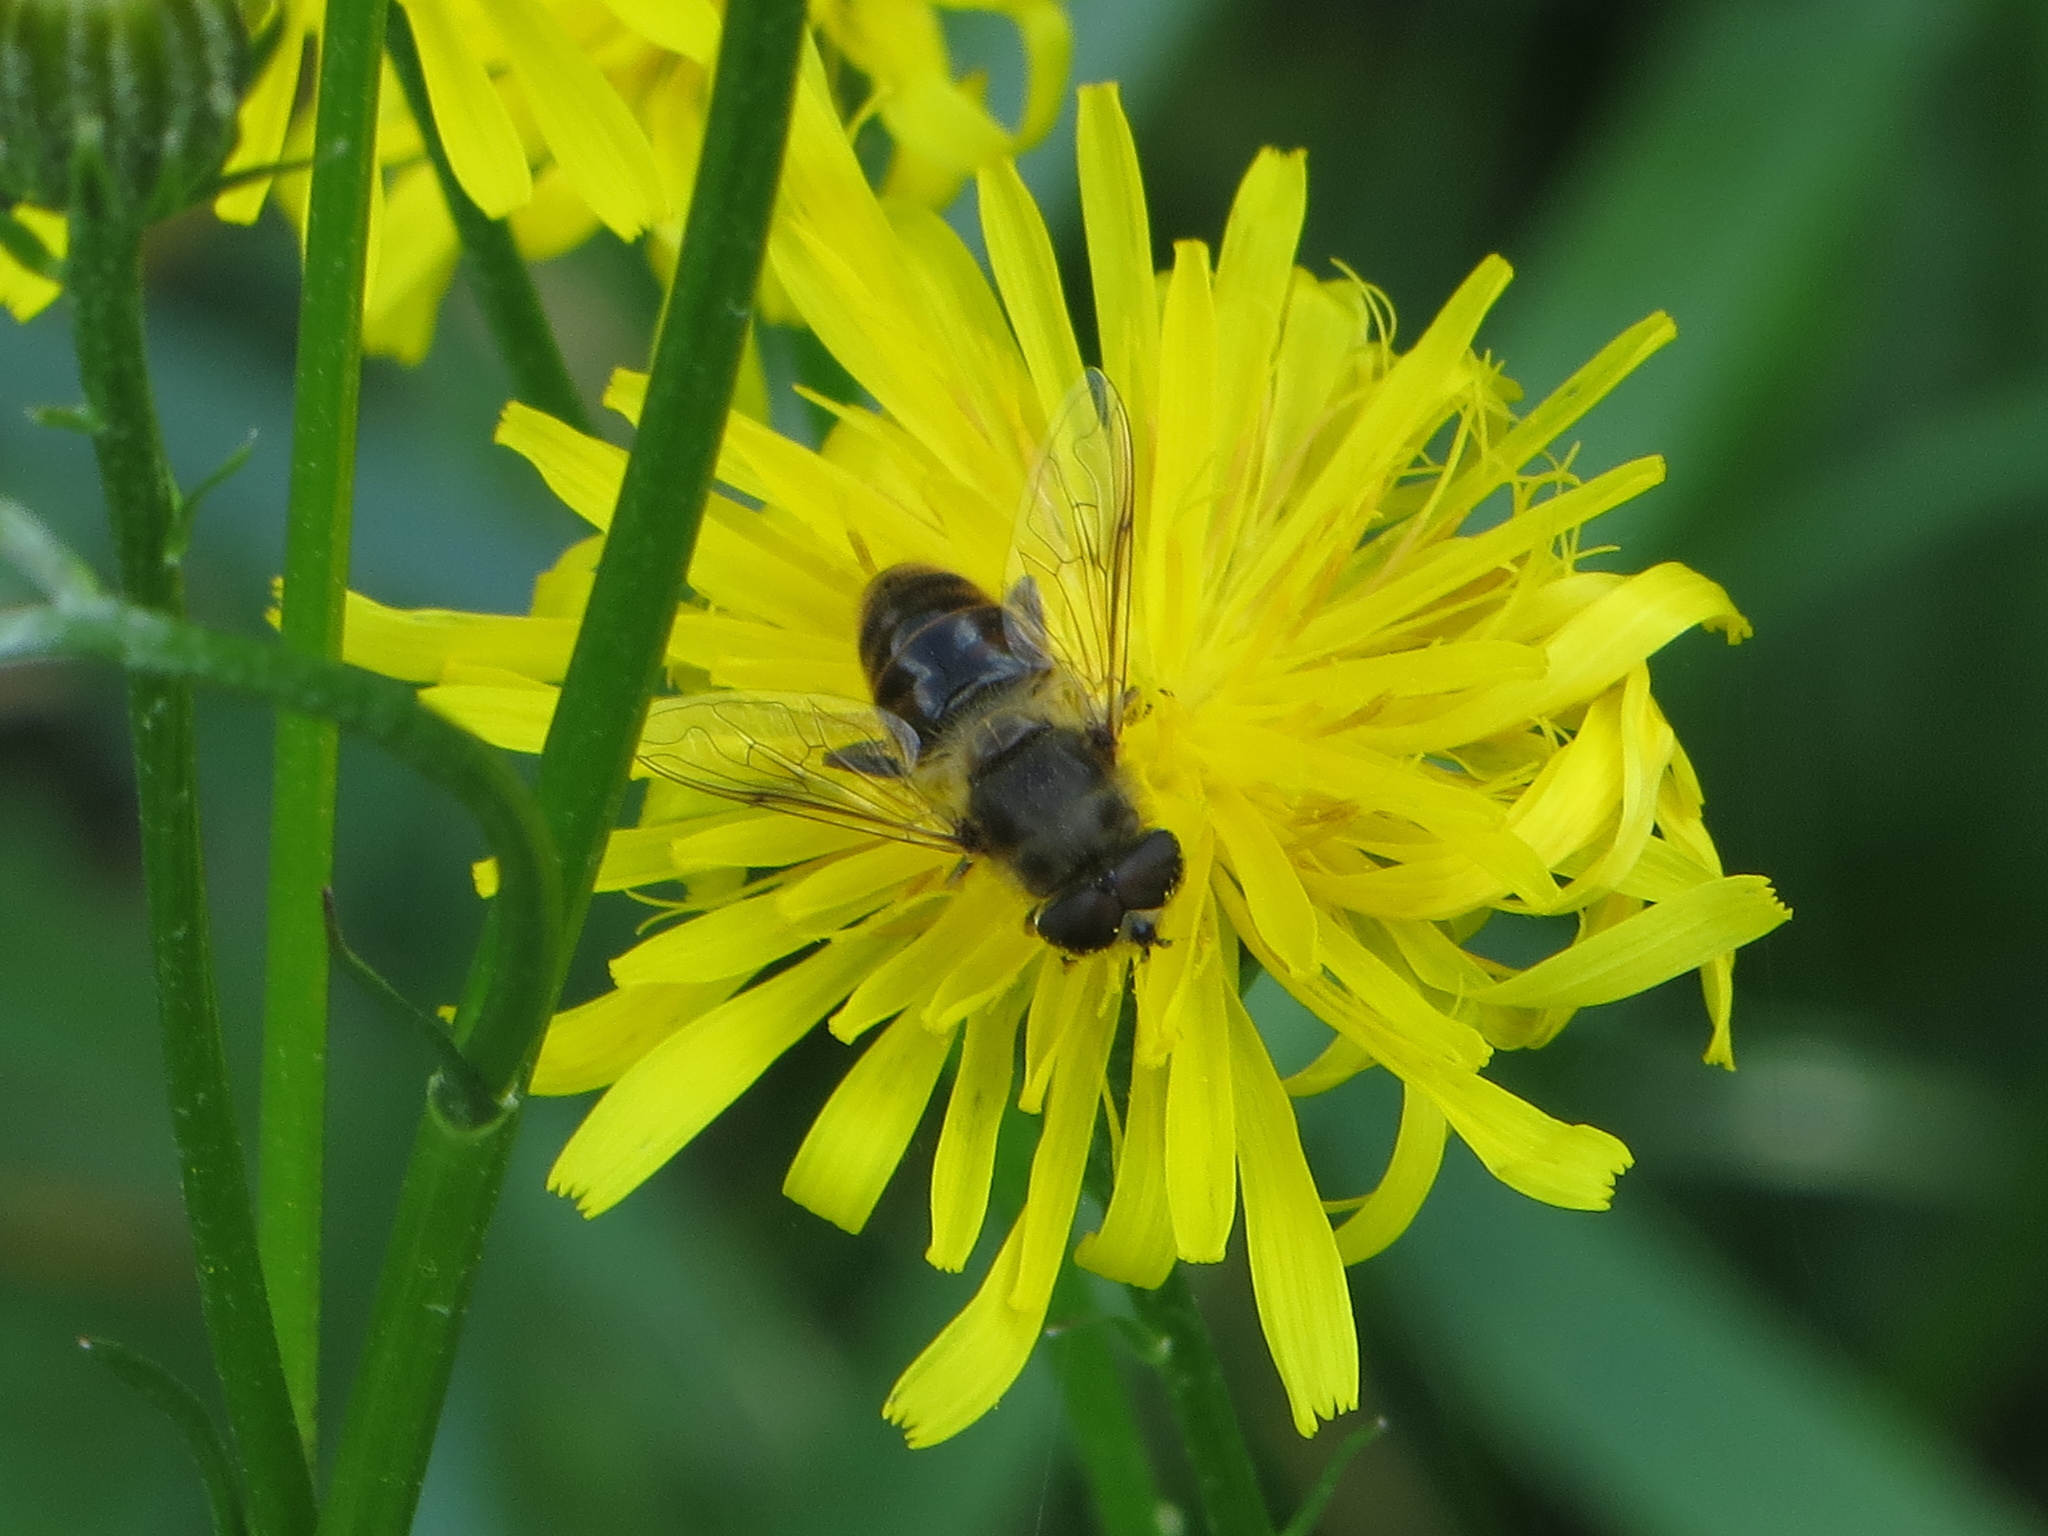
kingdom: Animalia
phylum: Arthropoda
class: Insecta
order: Diptera
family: Syrphidae
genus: Eristalis
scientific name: Eristalis tenax
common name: Drone fly
